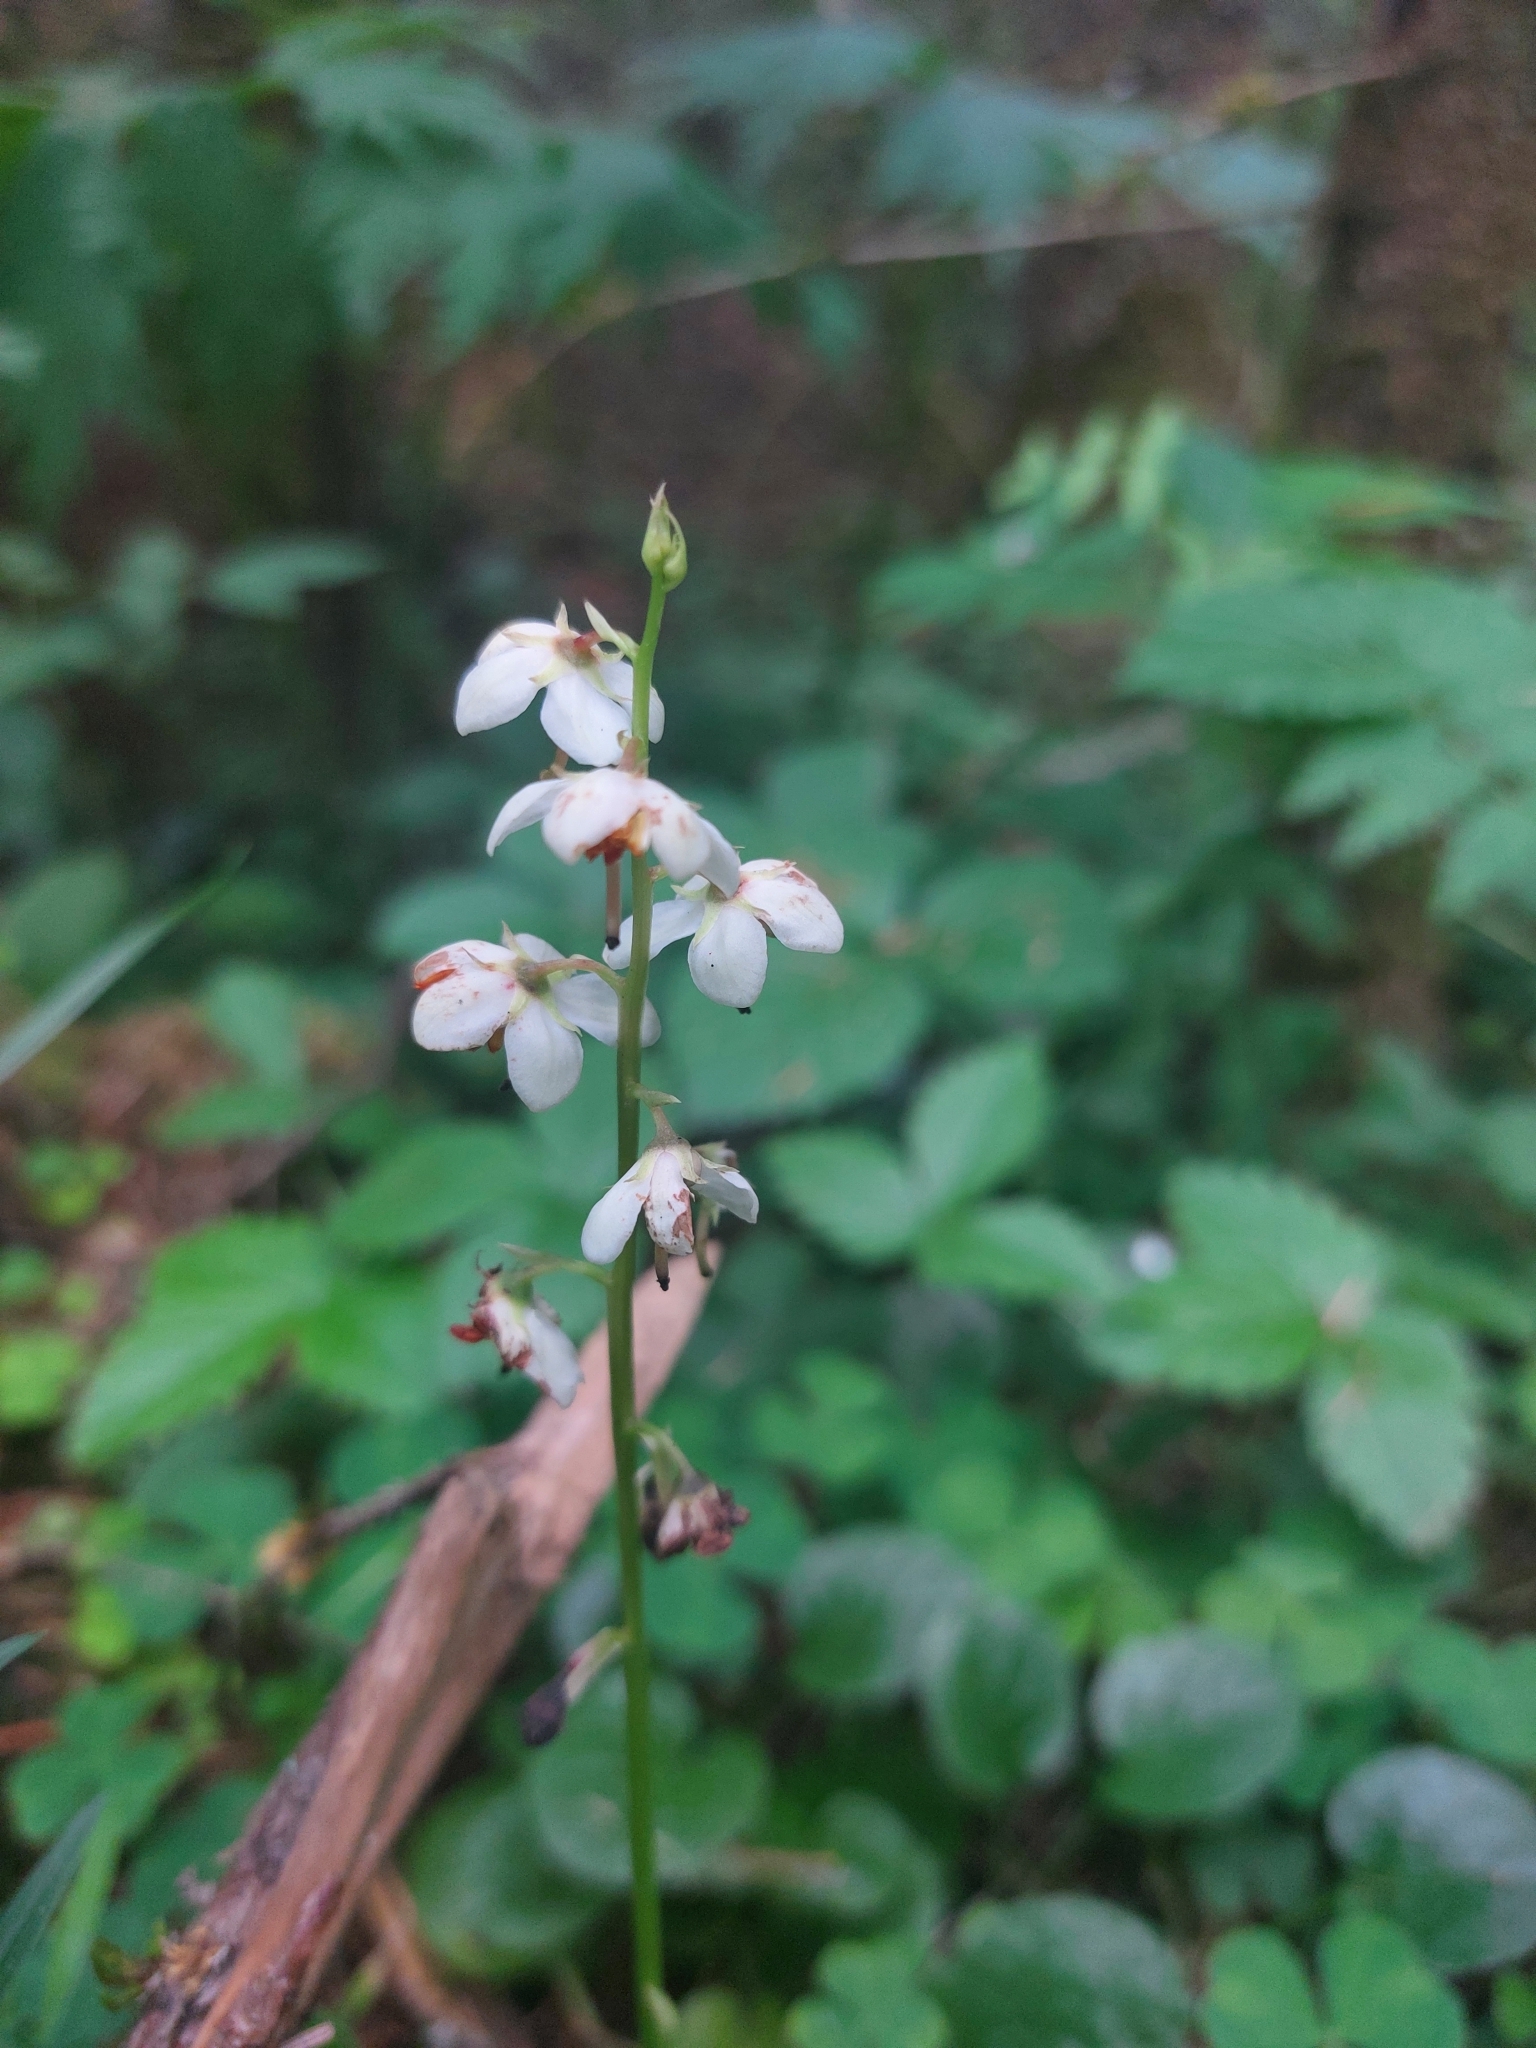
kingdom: Plantae
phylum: Tracheophyta
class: Magnoliopsida
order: Ericales
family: Ericaceae
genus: Pyrola
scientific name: Pyrola rotundifolia
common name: Round-leaved wintergreen
